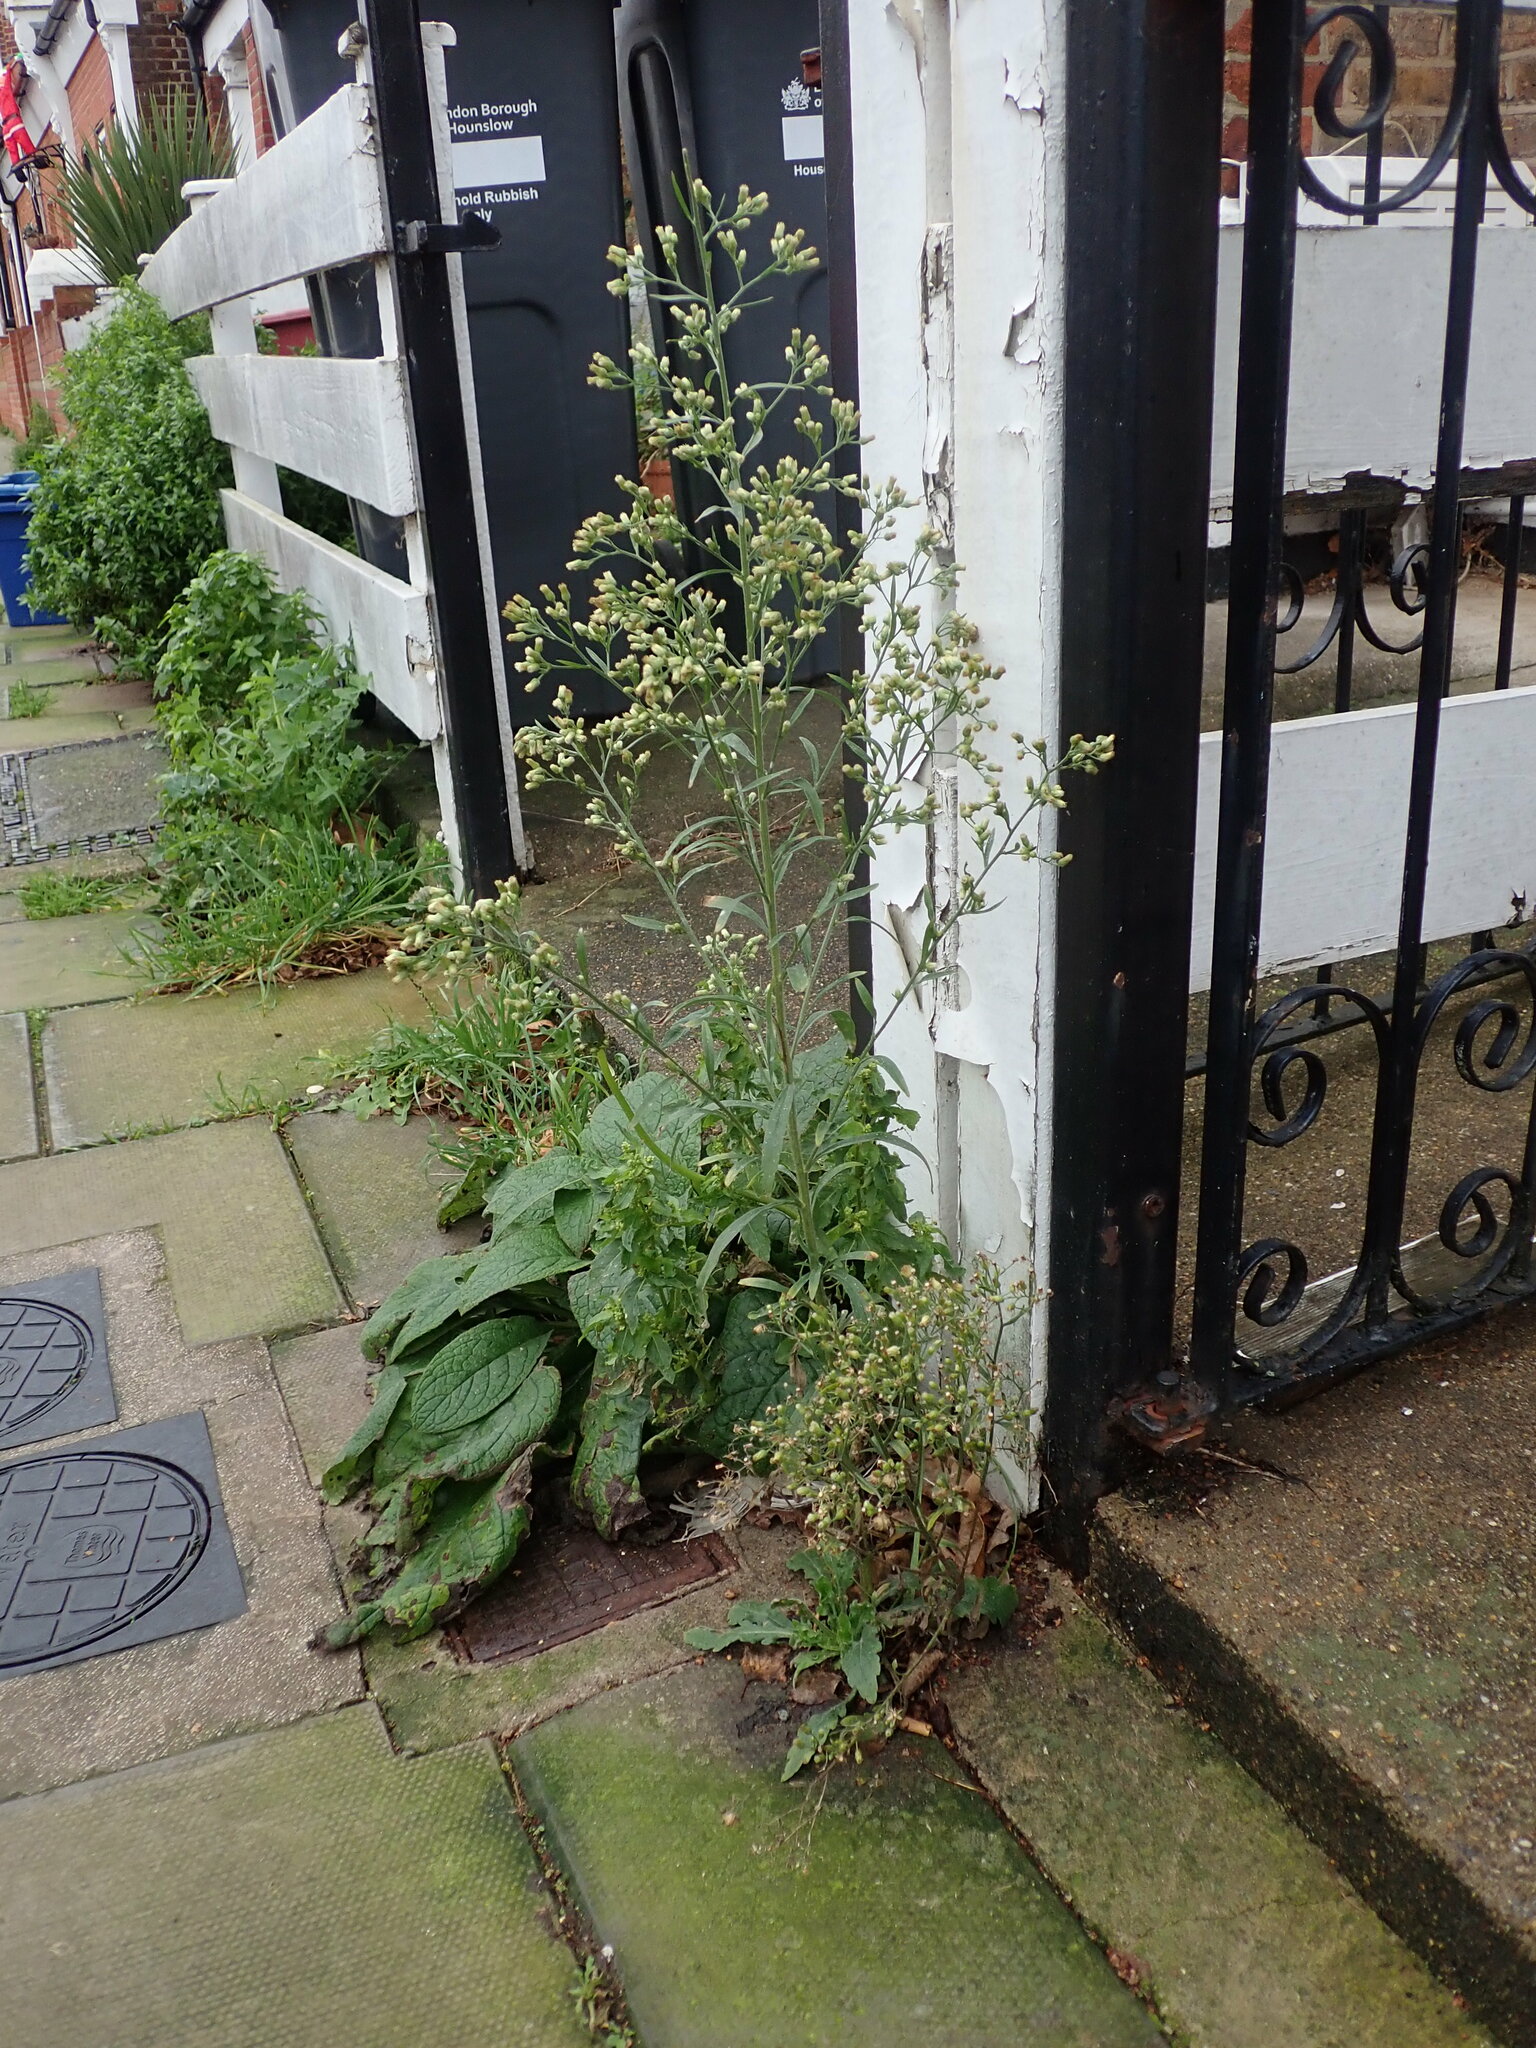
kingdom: Plantae
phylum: Tracheophyta
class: Magnoliopsida
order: Asterales
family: Asteraceae
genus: Erigeron
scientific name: Erigeron sumatrensis
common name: Daisy
